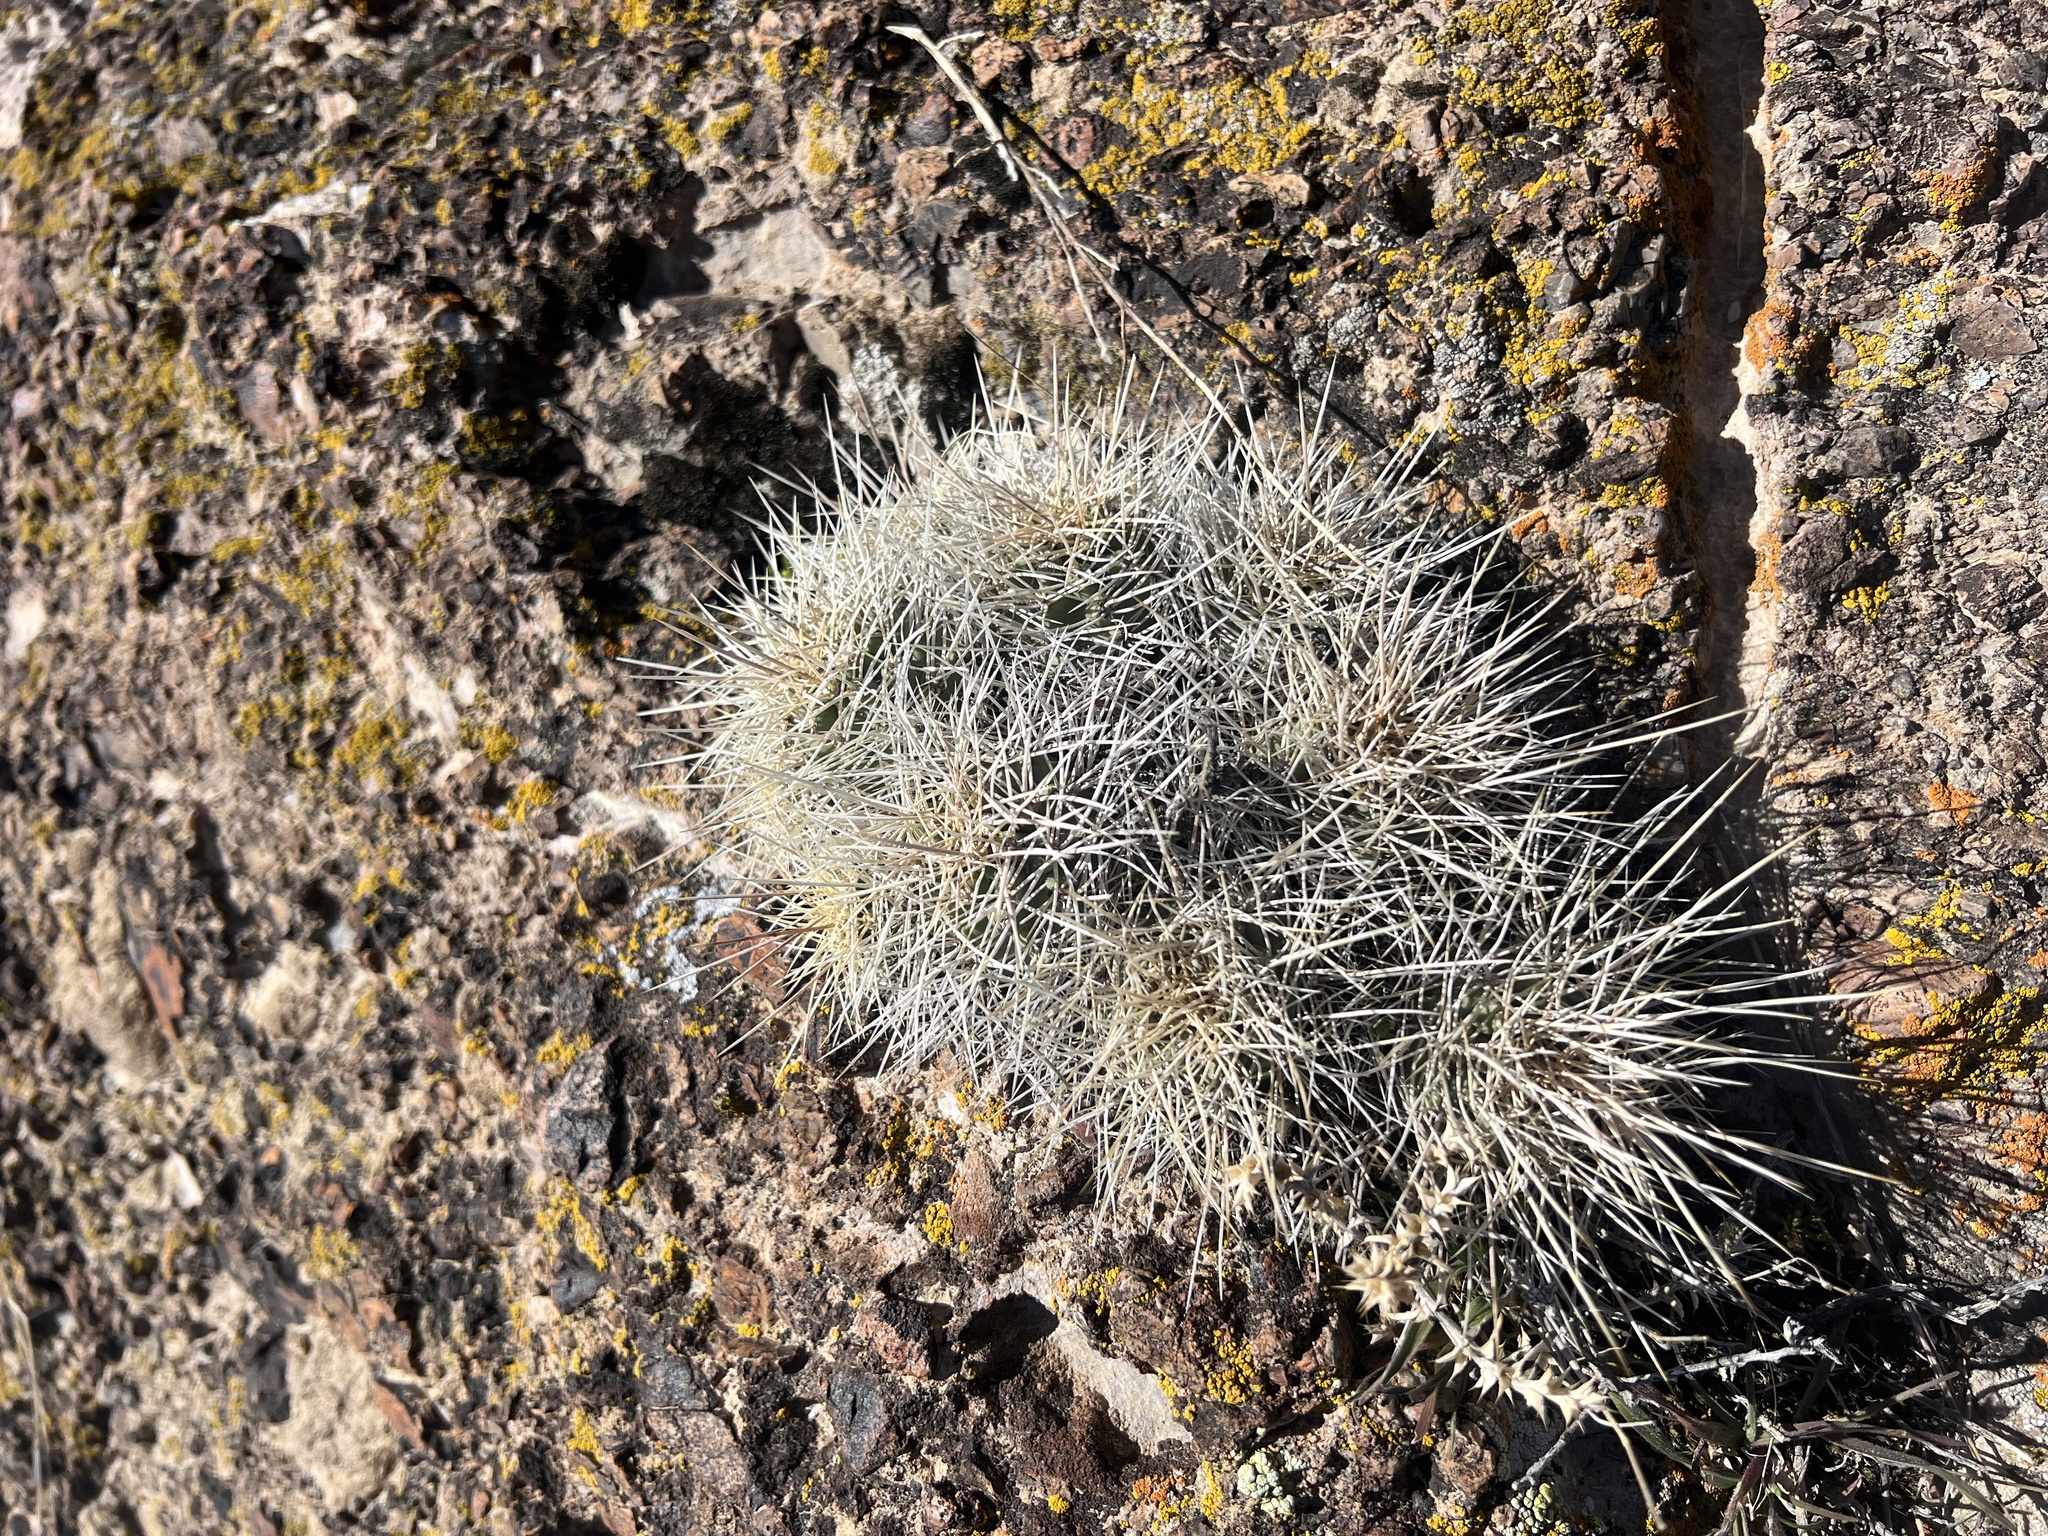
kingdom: Plantae
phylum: Tracheophyta
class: Magnoliopsida
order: Caryophyllales
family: Cactaceae
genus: Echinocereus
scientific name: Echinocereus triglochidiatus
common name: Claretcup hedgehog
